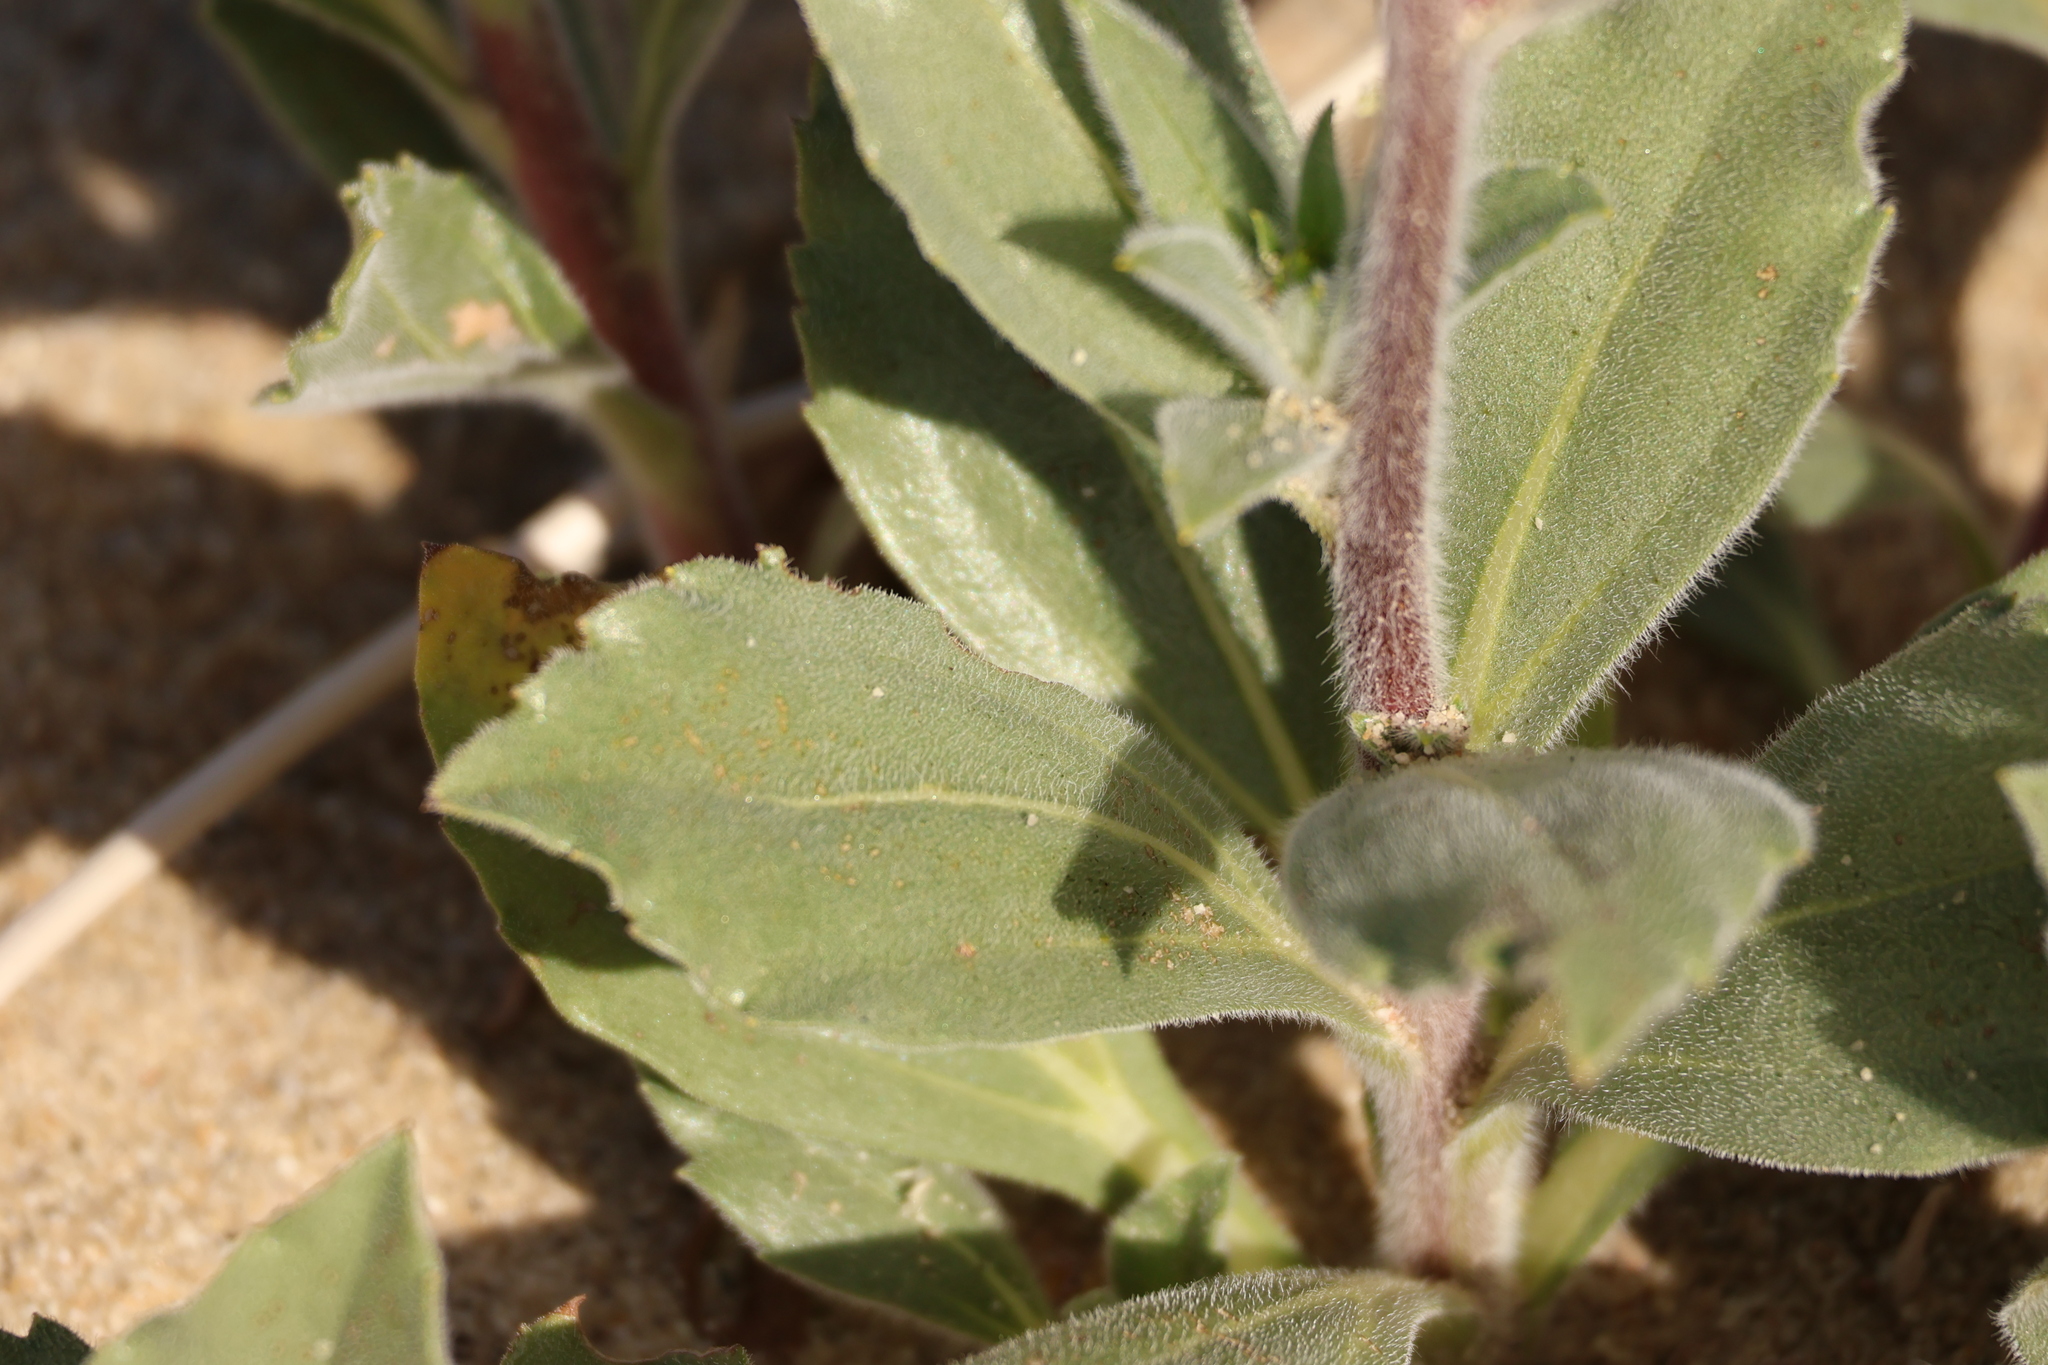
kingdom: Plantae
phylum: Tracheophyta
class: Magnoliopsida
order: Asterales
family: Asteraceae
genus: Geraea
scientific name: Geraea canescens
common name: Desert-gold
